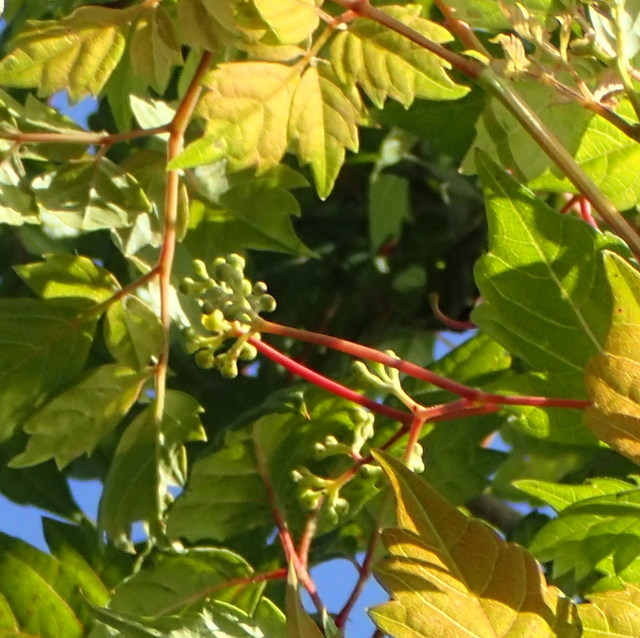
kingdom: Plantae
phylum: Tracheophyta
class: Magnoliopsida
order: Vitales
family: Vitaceae
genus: Nekemias
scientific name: Nekemias arborea
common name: Peppervine
